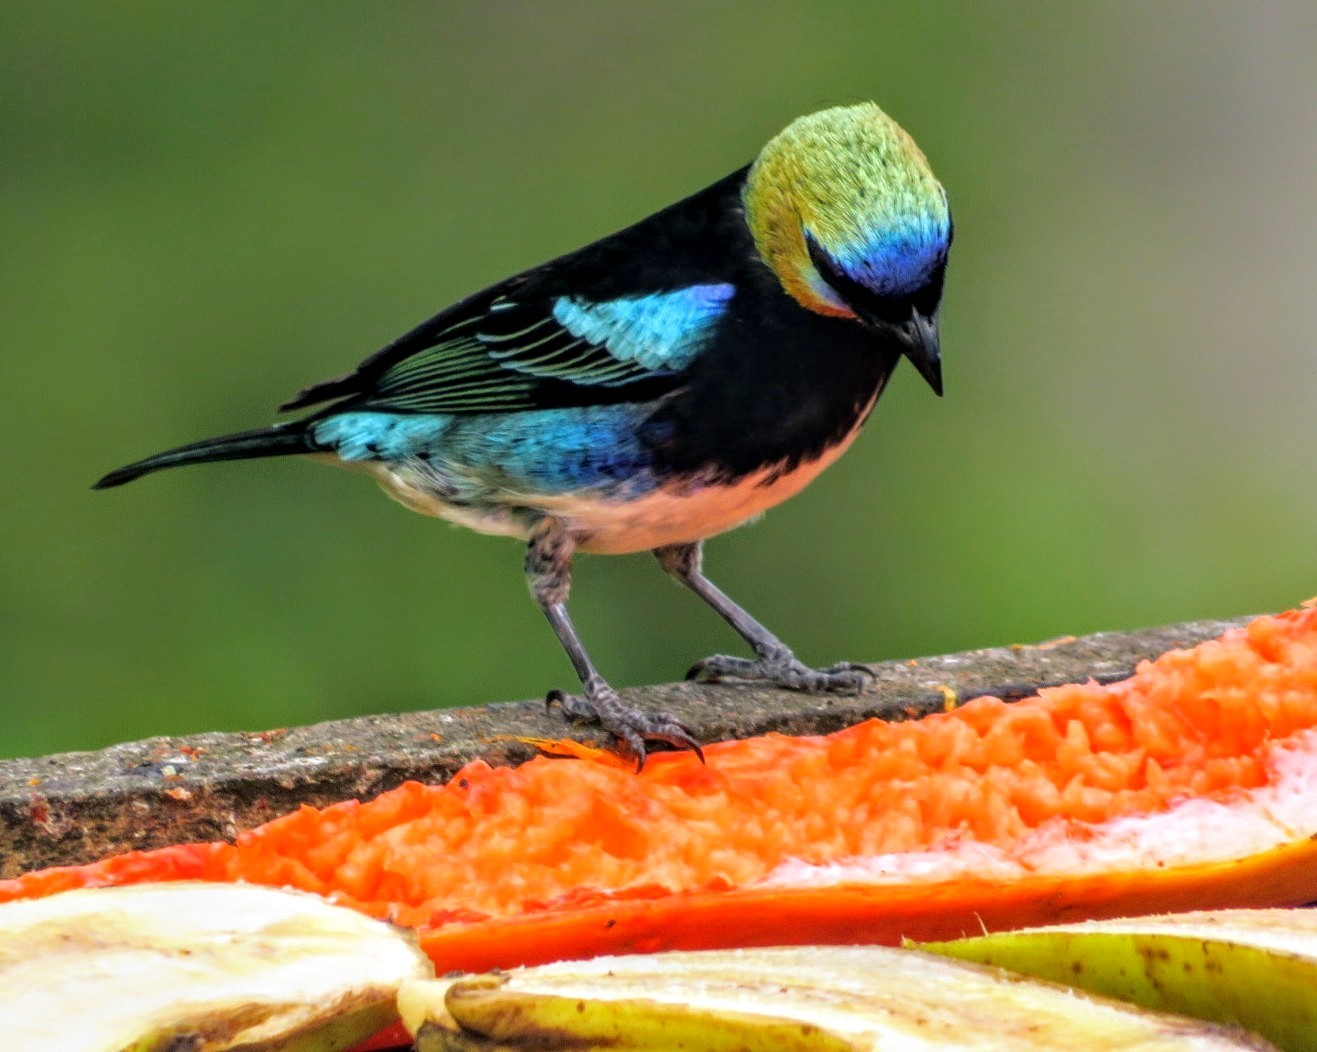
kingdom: Animalia
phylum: Chordata
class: Aves
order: Passeriformes
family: Thraupidae
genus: Stilpnia
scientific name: Stilpnia larvata
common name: Golden-hooded tanager
